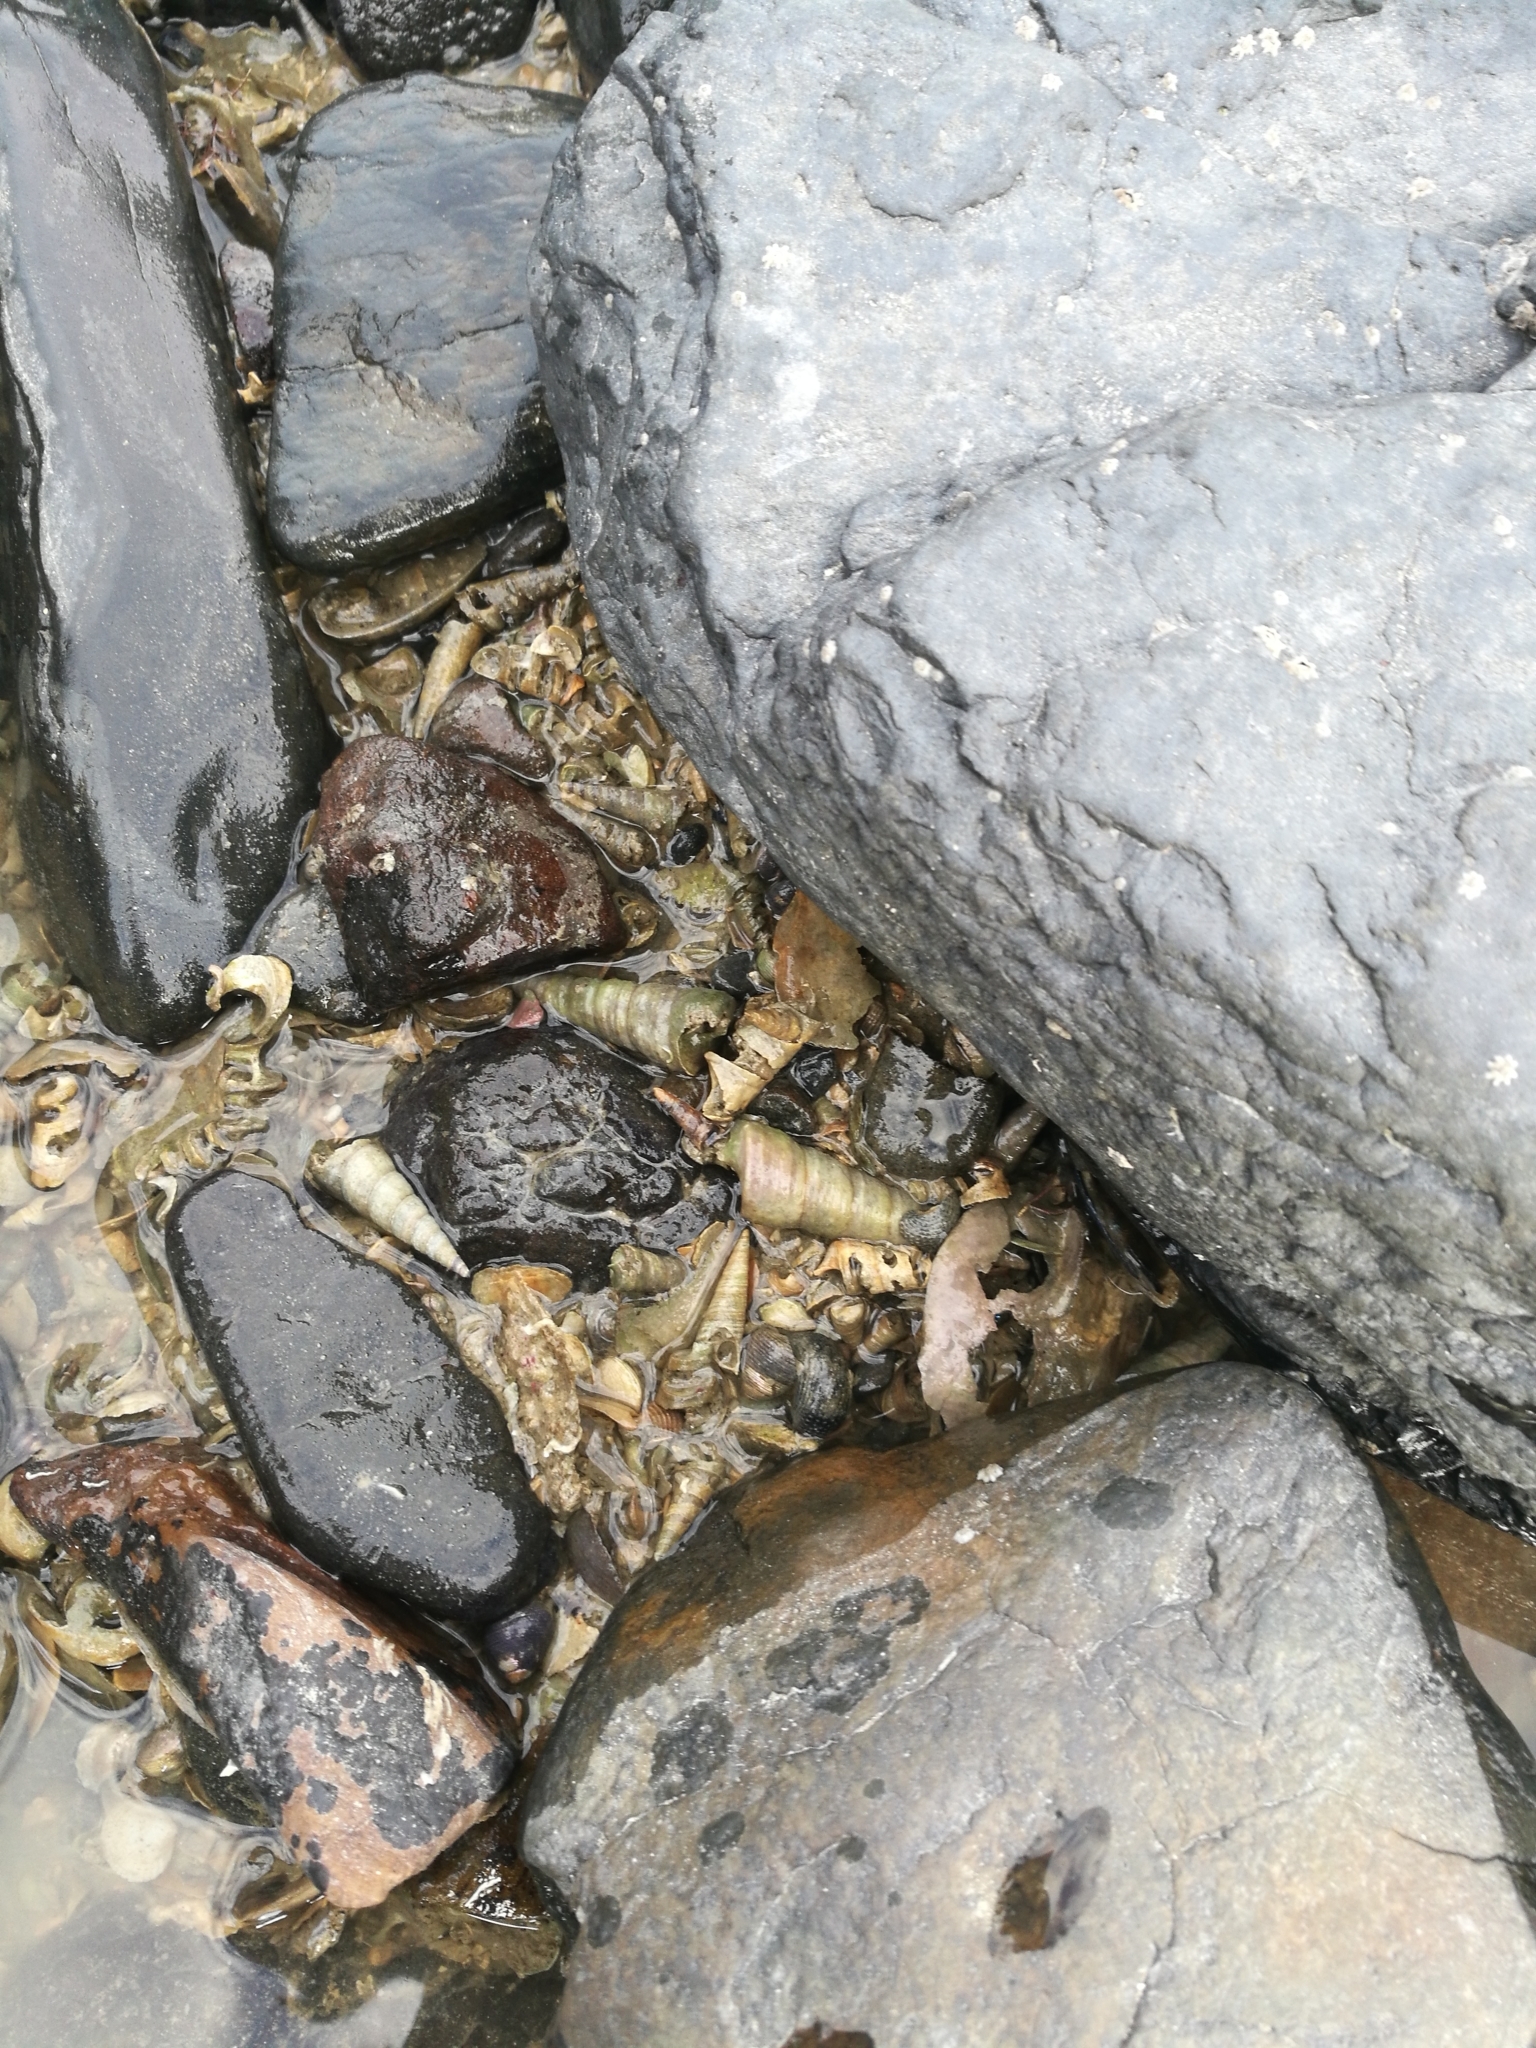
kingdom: Animalia
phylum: Mollusca
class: Gastropoda
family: Turritellidae
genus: Maoricolpus
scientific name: Maoricolpus roseus
